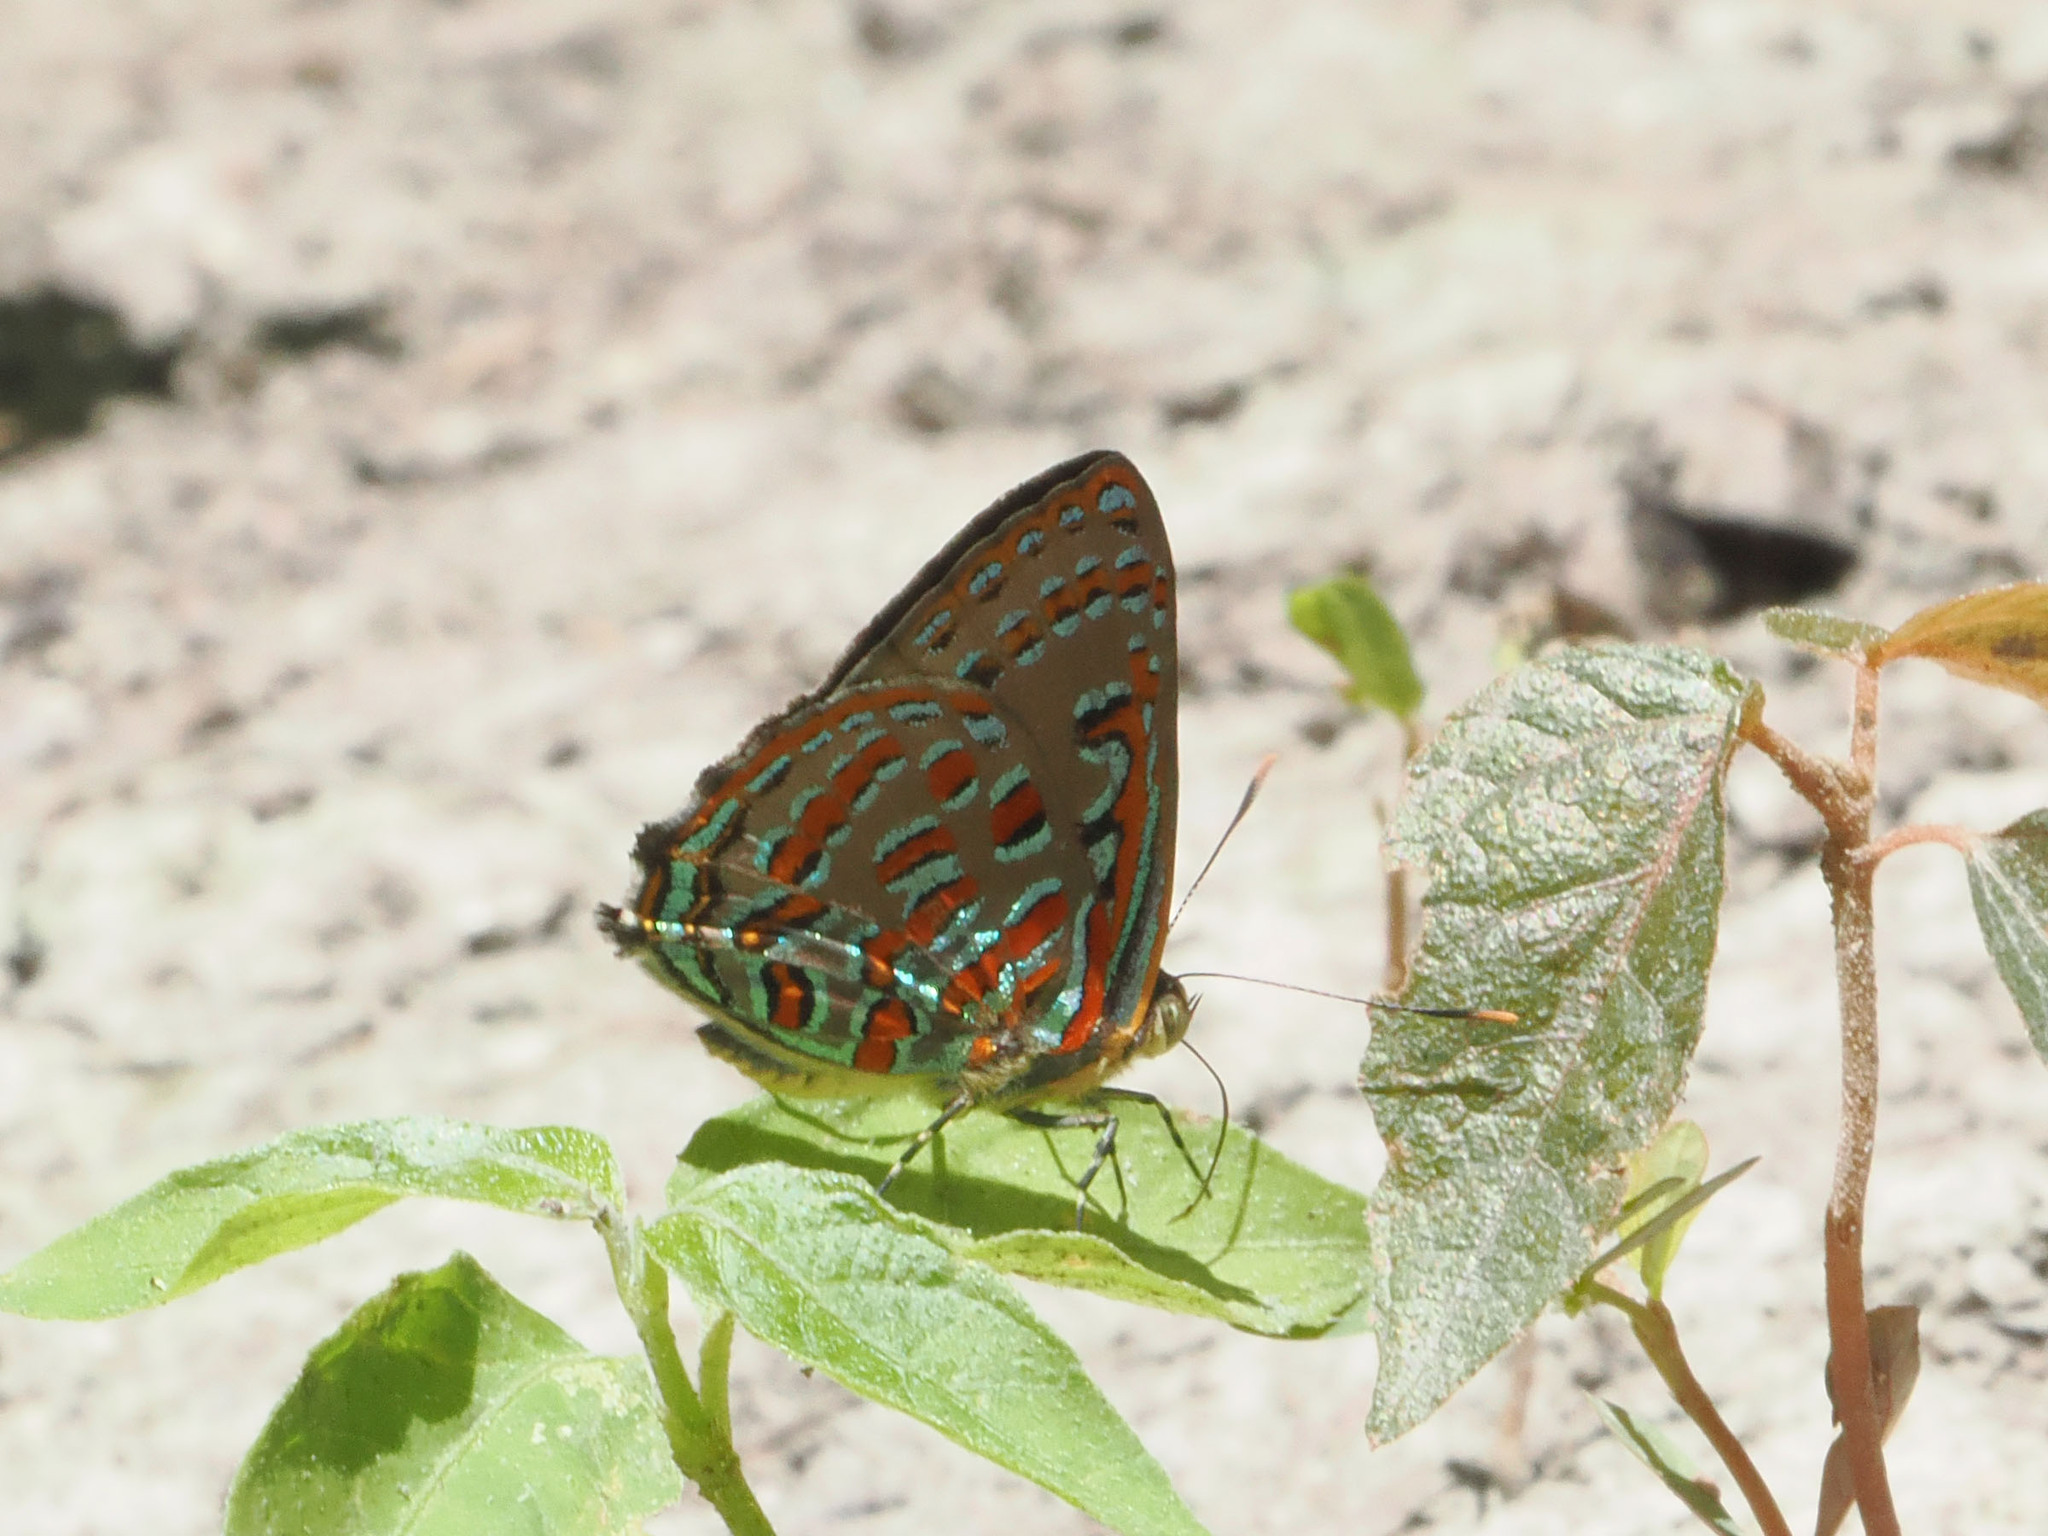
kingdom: Animalia
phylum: Arthropoda
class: Insecta
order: Lepidoptera
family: Lycaenidae
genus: Hypochrysops
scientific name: Hypochrysops pythias
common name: Peacock jewel
